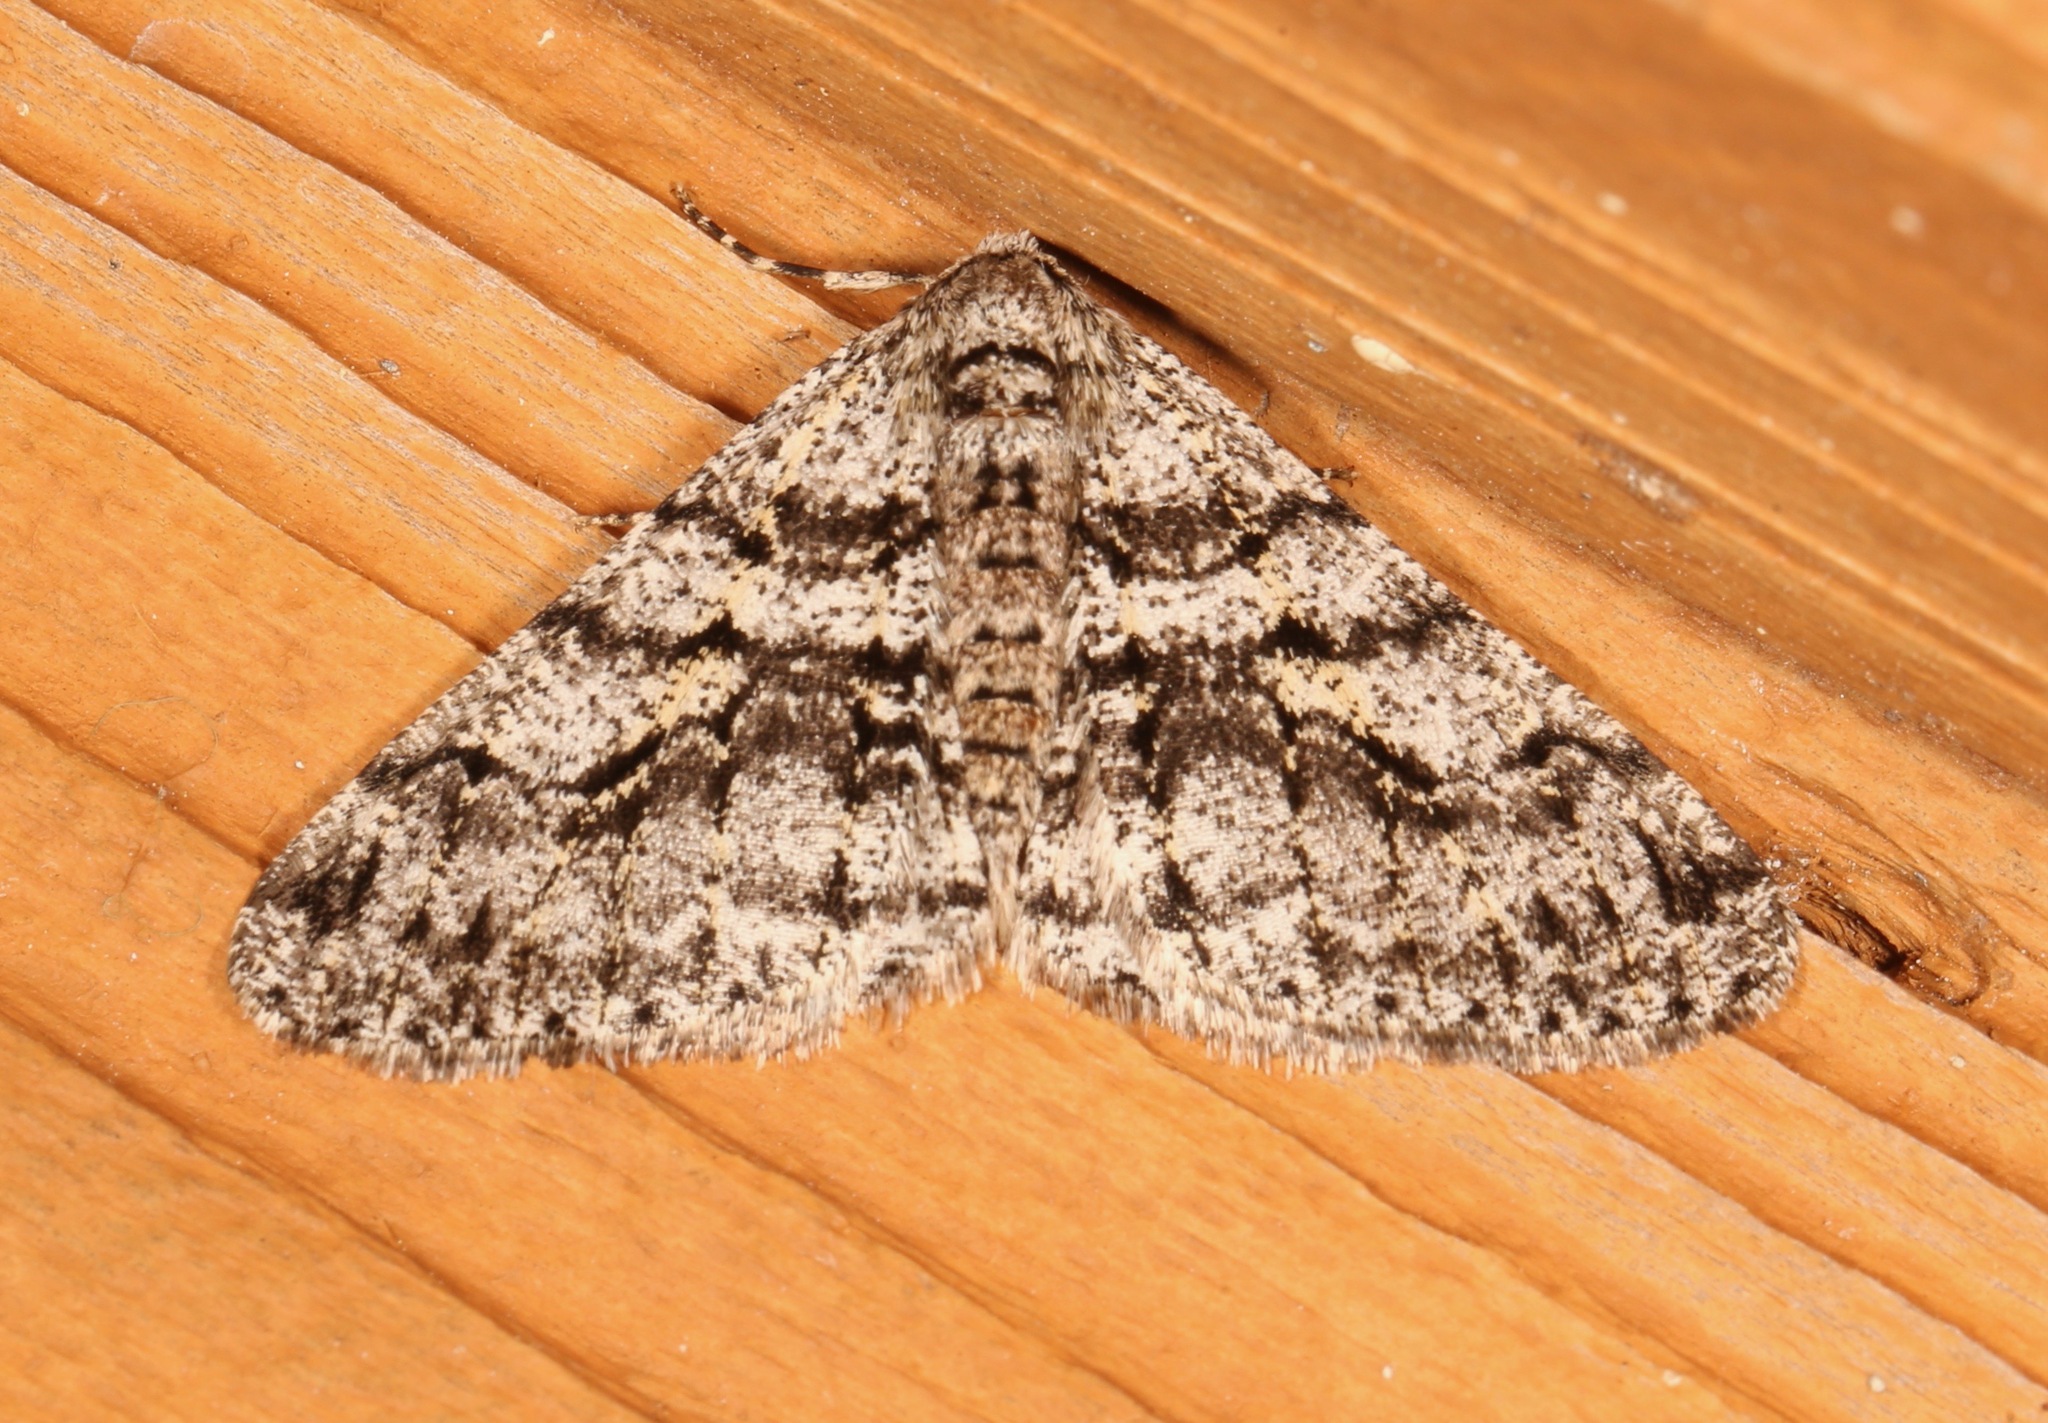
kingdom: Animalia
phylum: Arthropoda
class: Insecta
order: Lepidoptera
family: Geometridae
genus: Phigalia
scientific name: Phigalia titea
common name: Spiny looper
